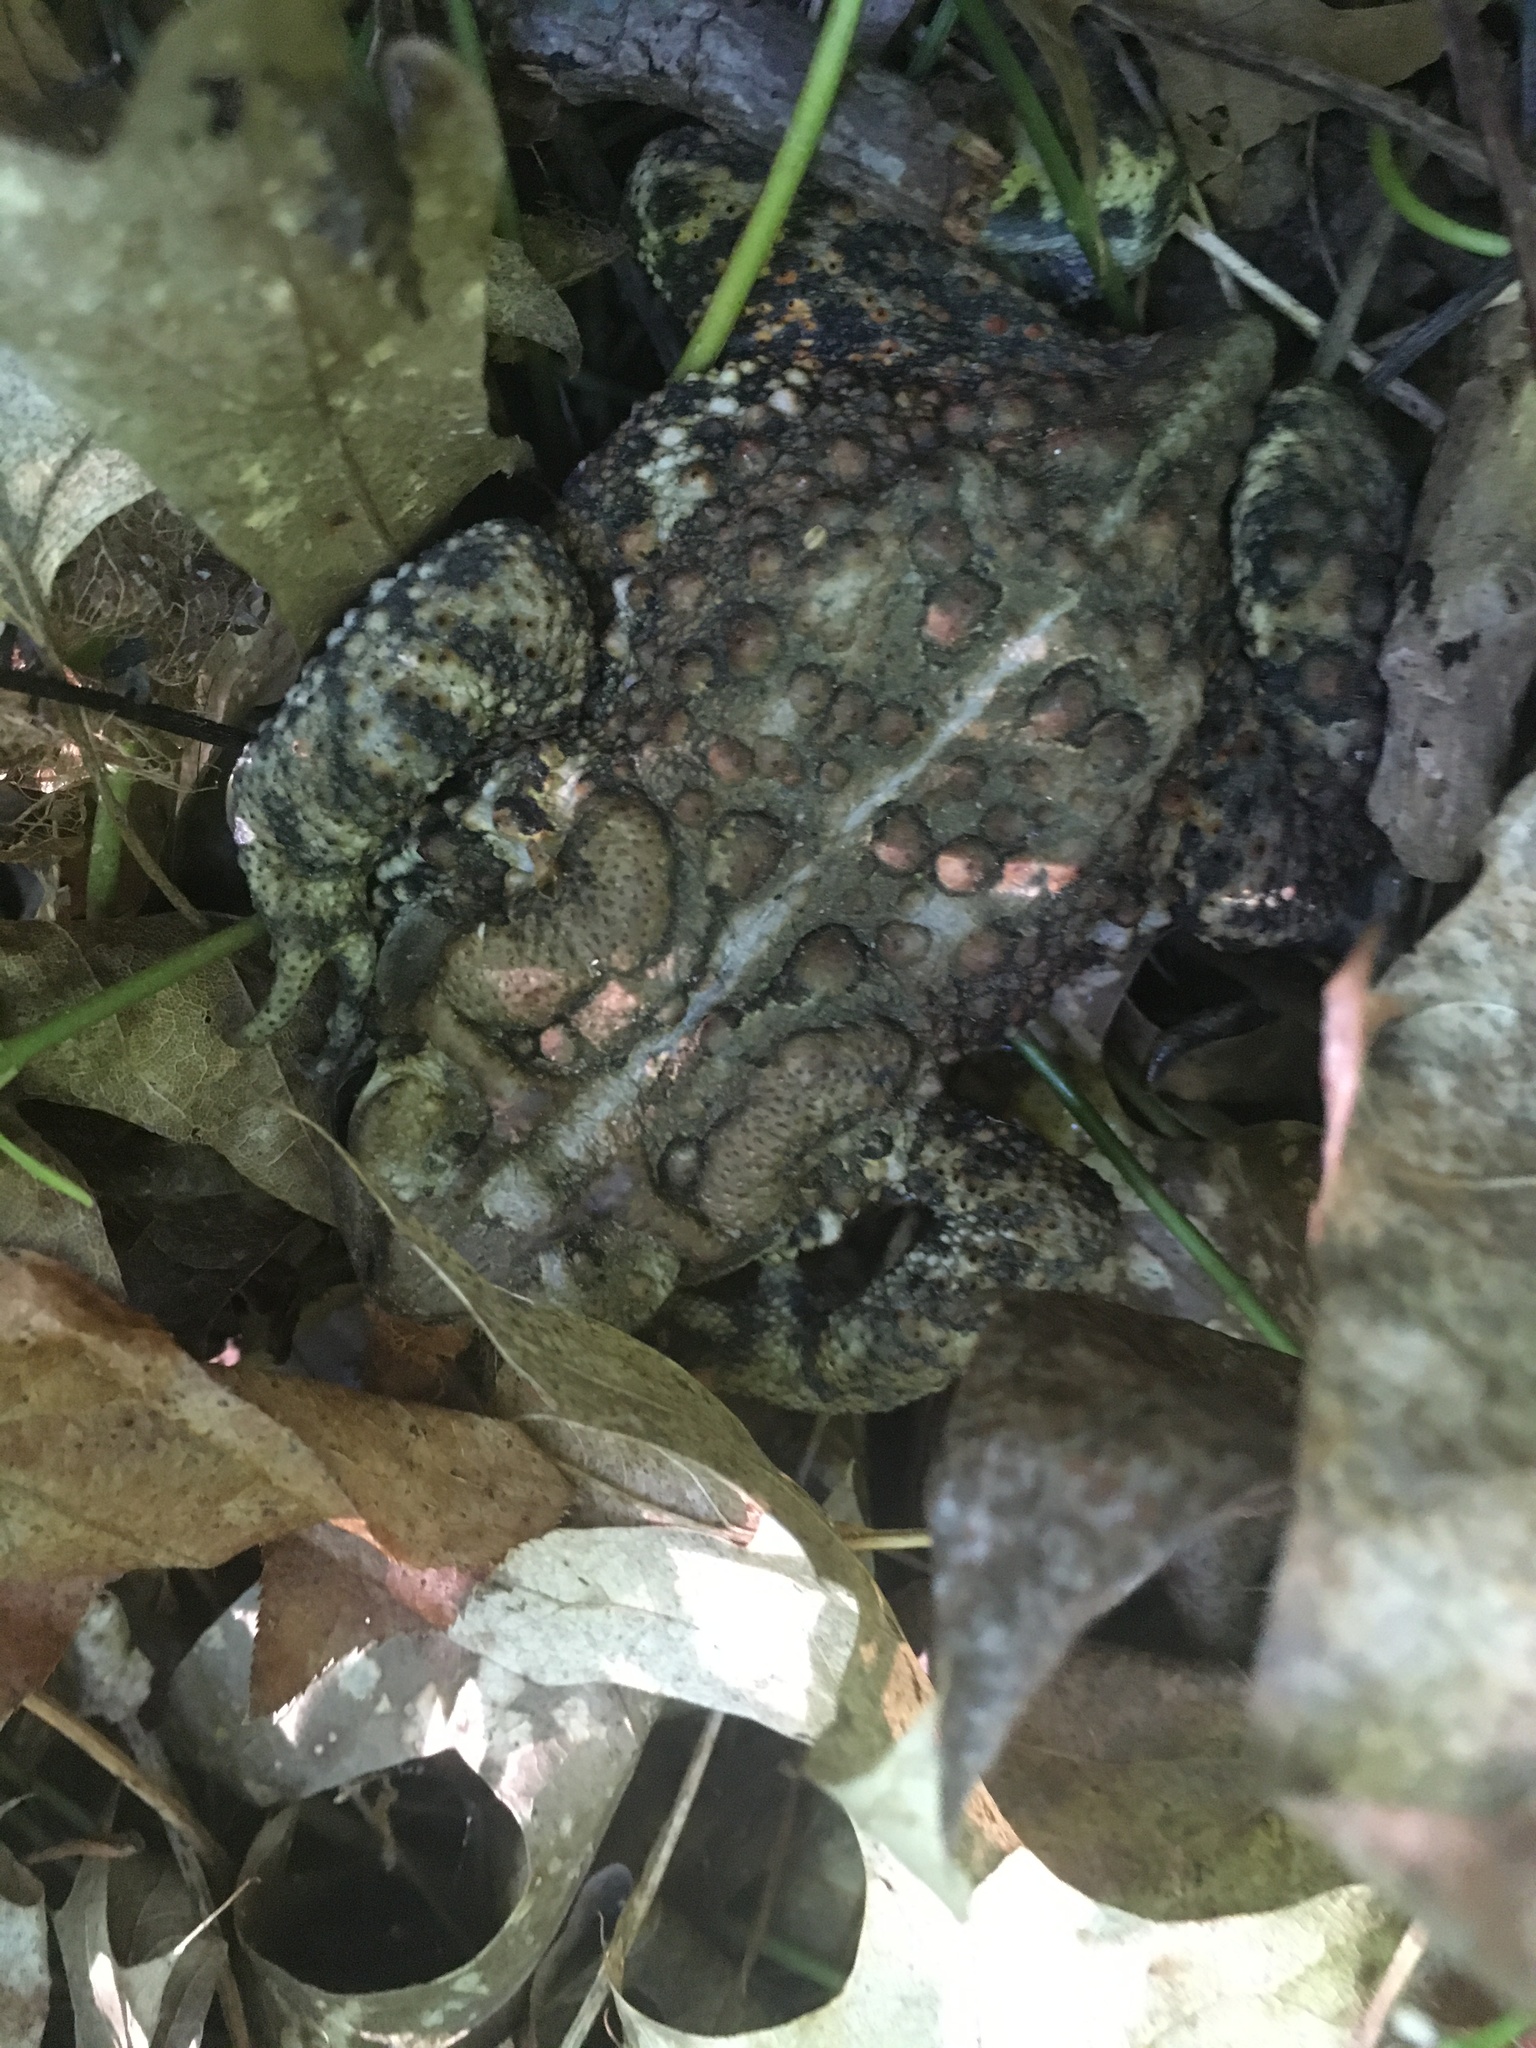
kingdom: Animalia
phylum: Chordata
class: Amphibia
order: Anura
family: Bufonidae
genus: Anaxyrus
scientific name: Anaxyrus americanus
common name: American toad
